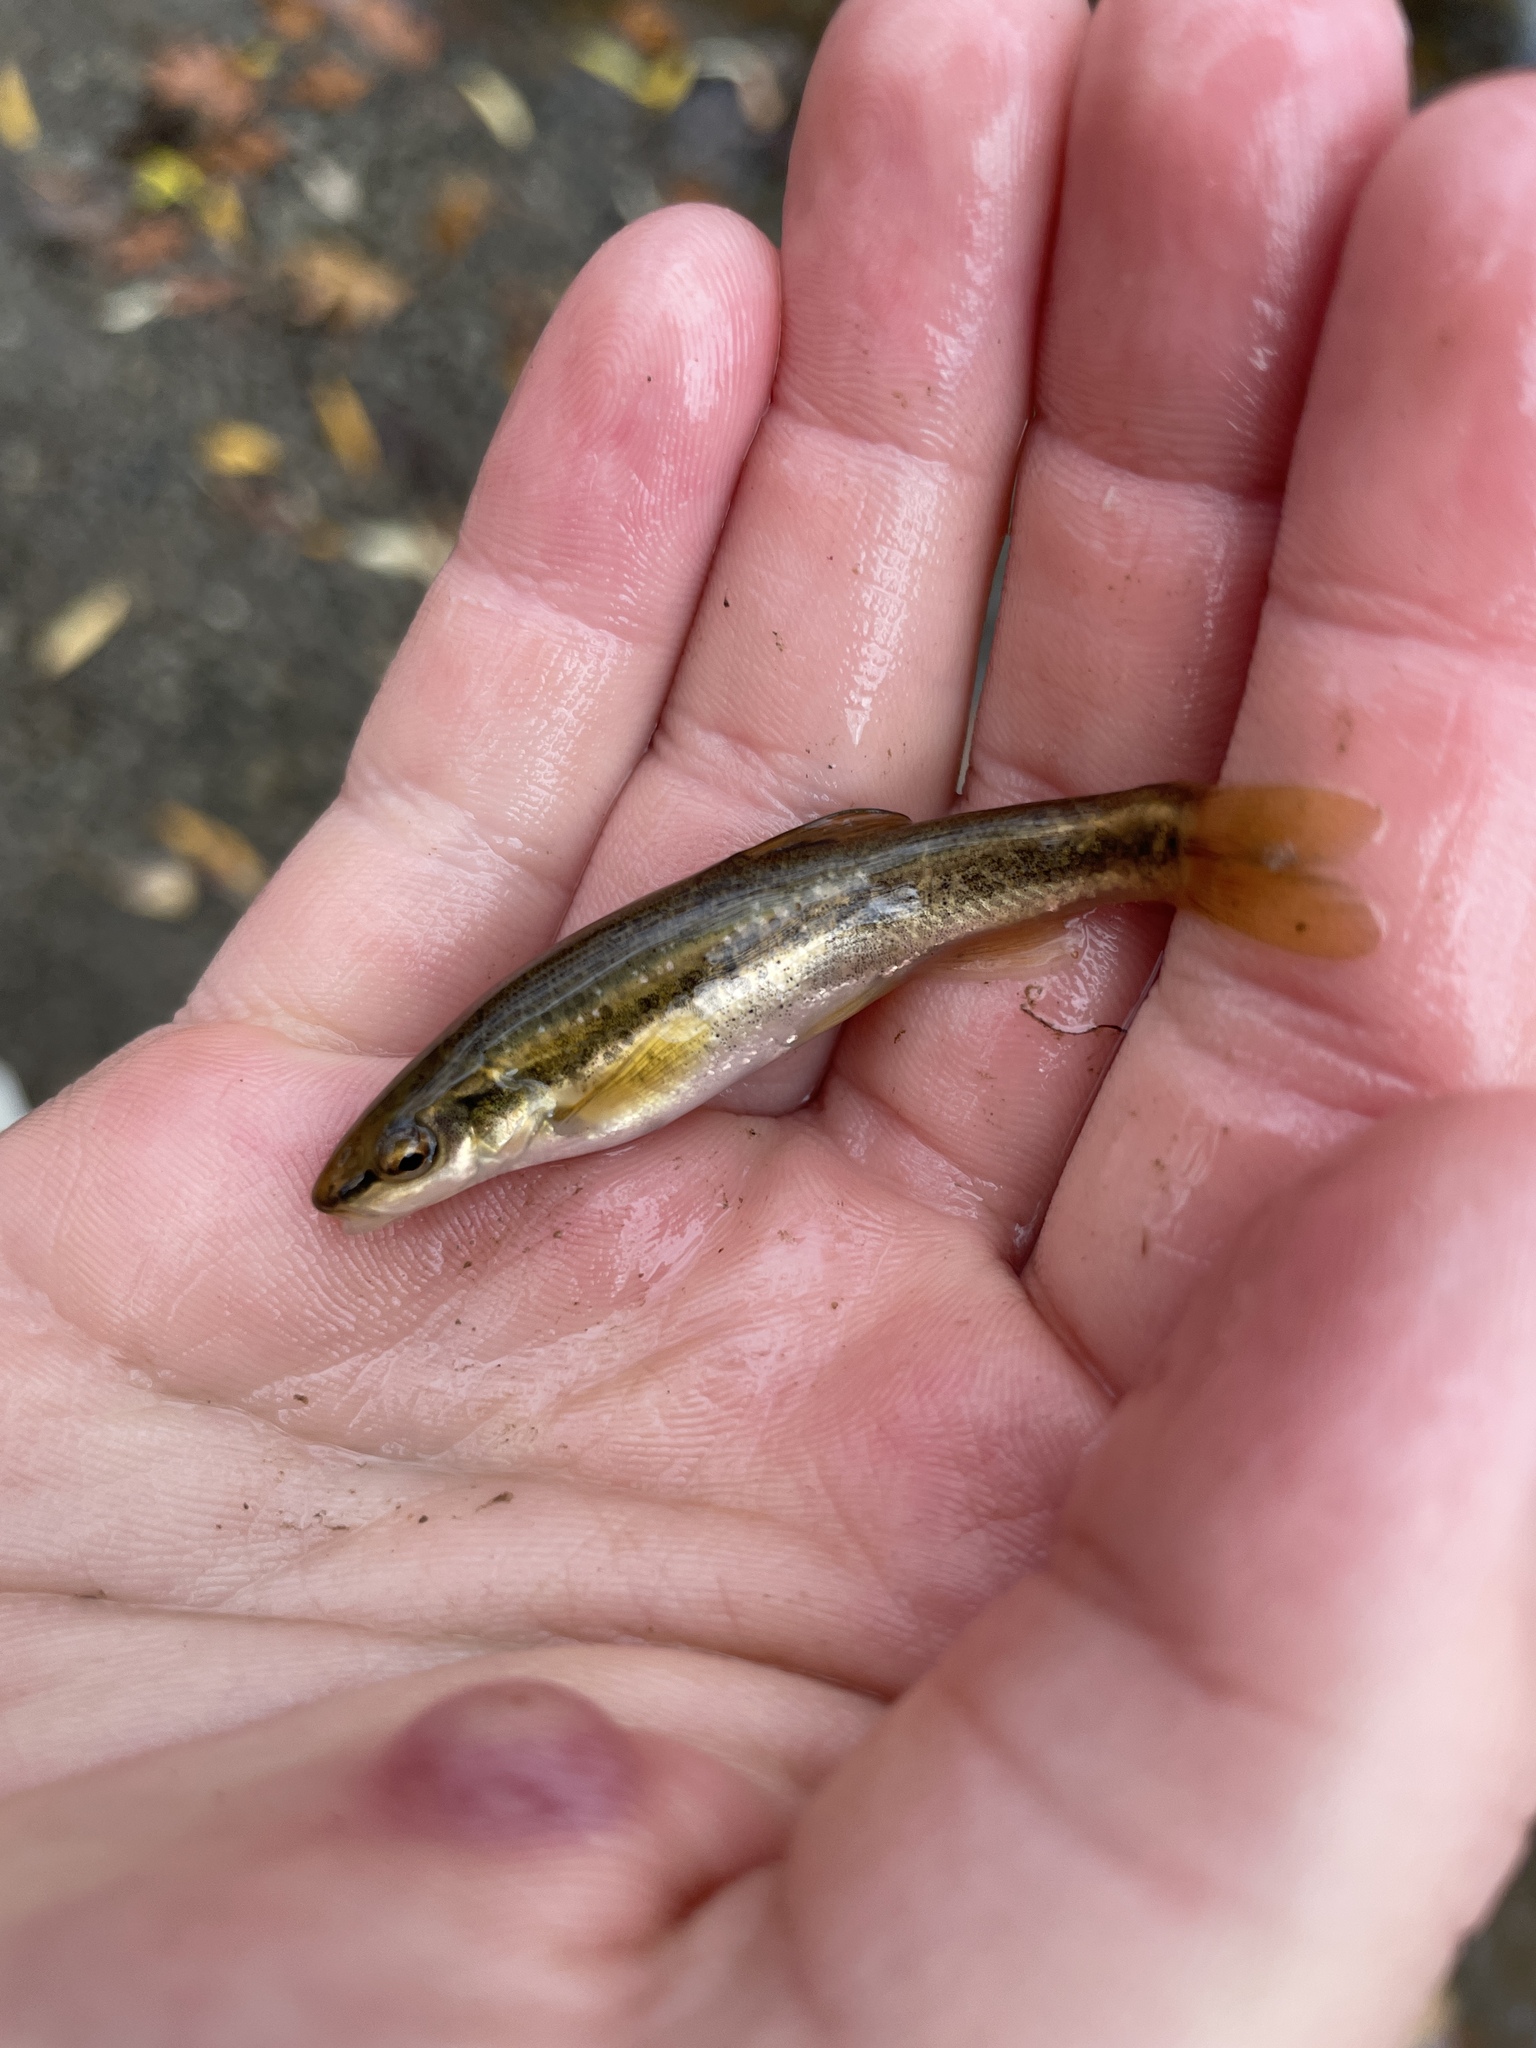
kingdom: Animalia
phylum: Chordata
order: Cypriniformes
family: Cyprinidae
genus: Rhinichthys
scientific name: Rhinichthys obtusus
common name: Western blacknose dace
